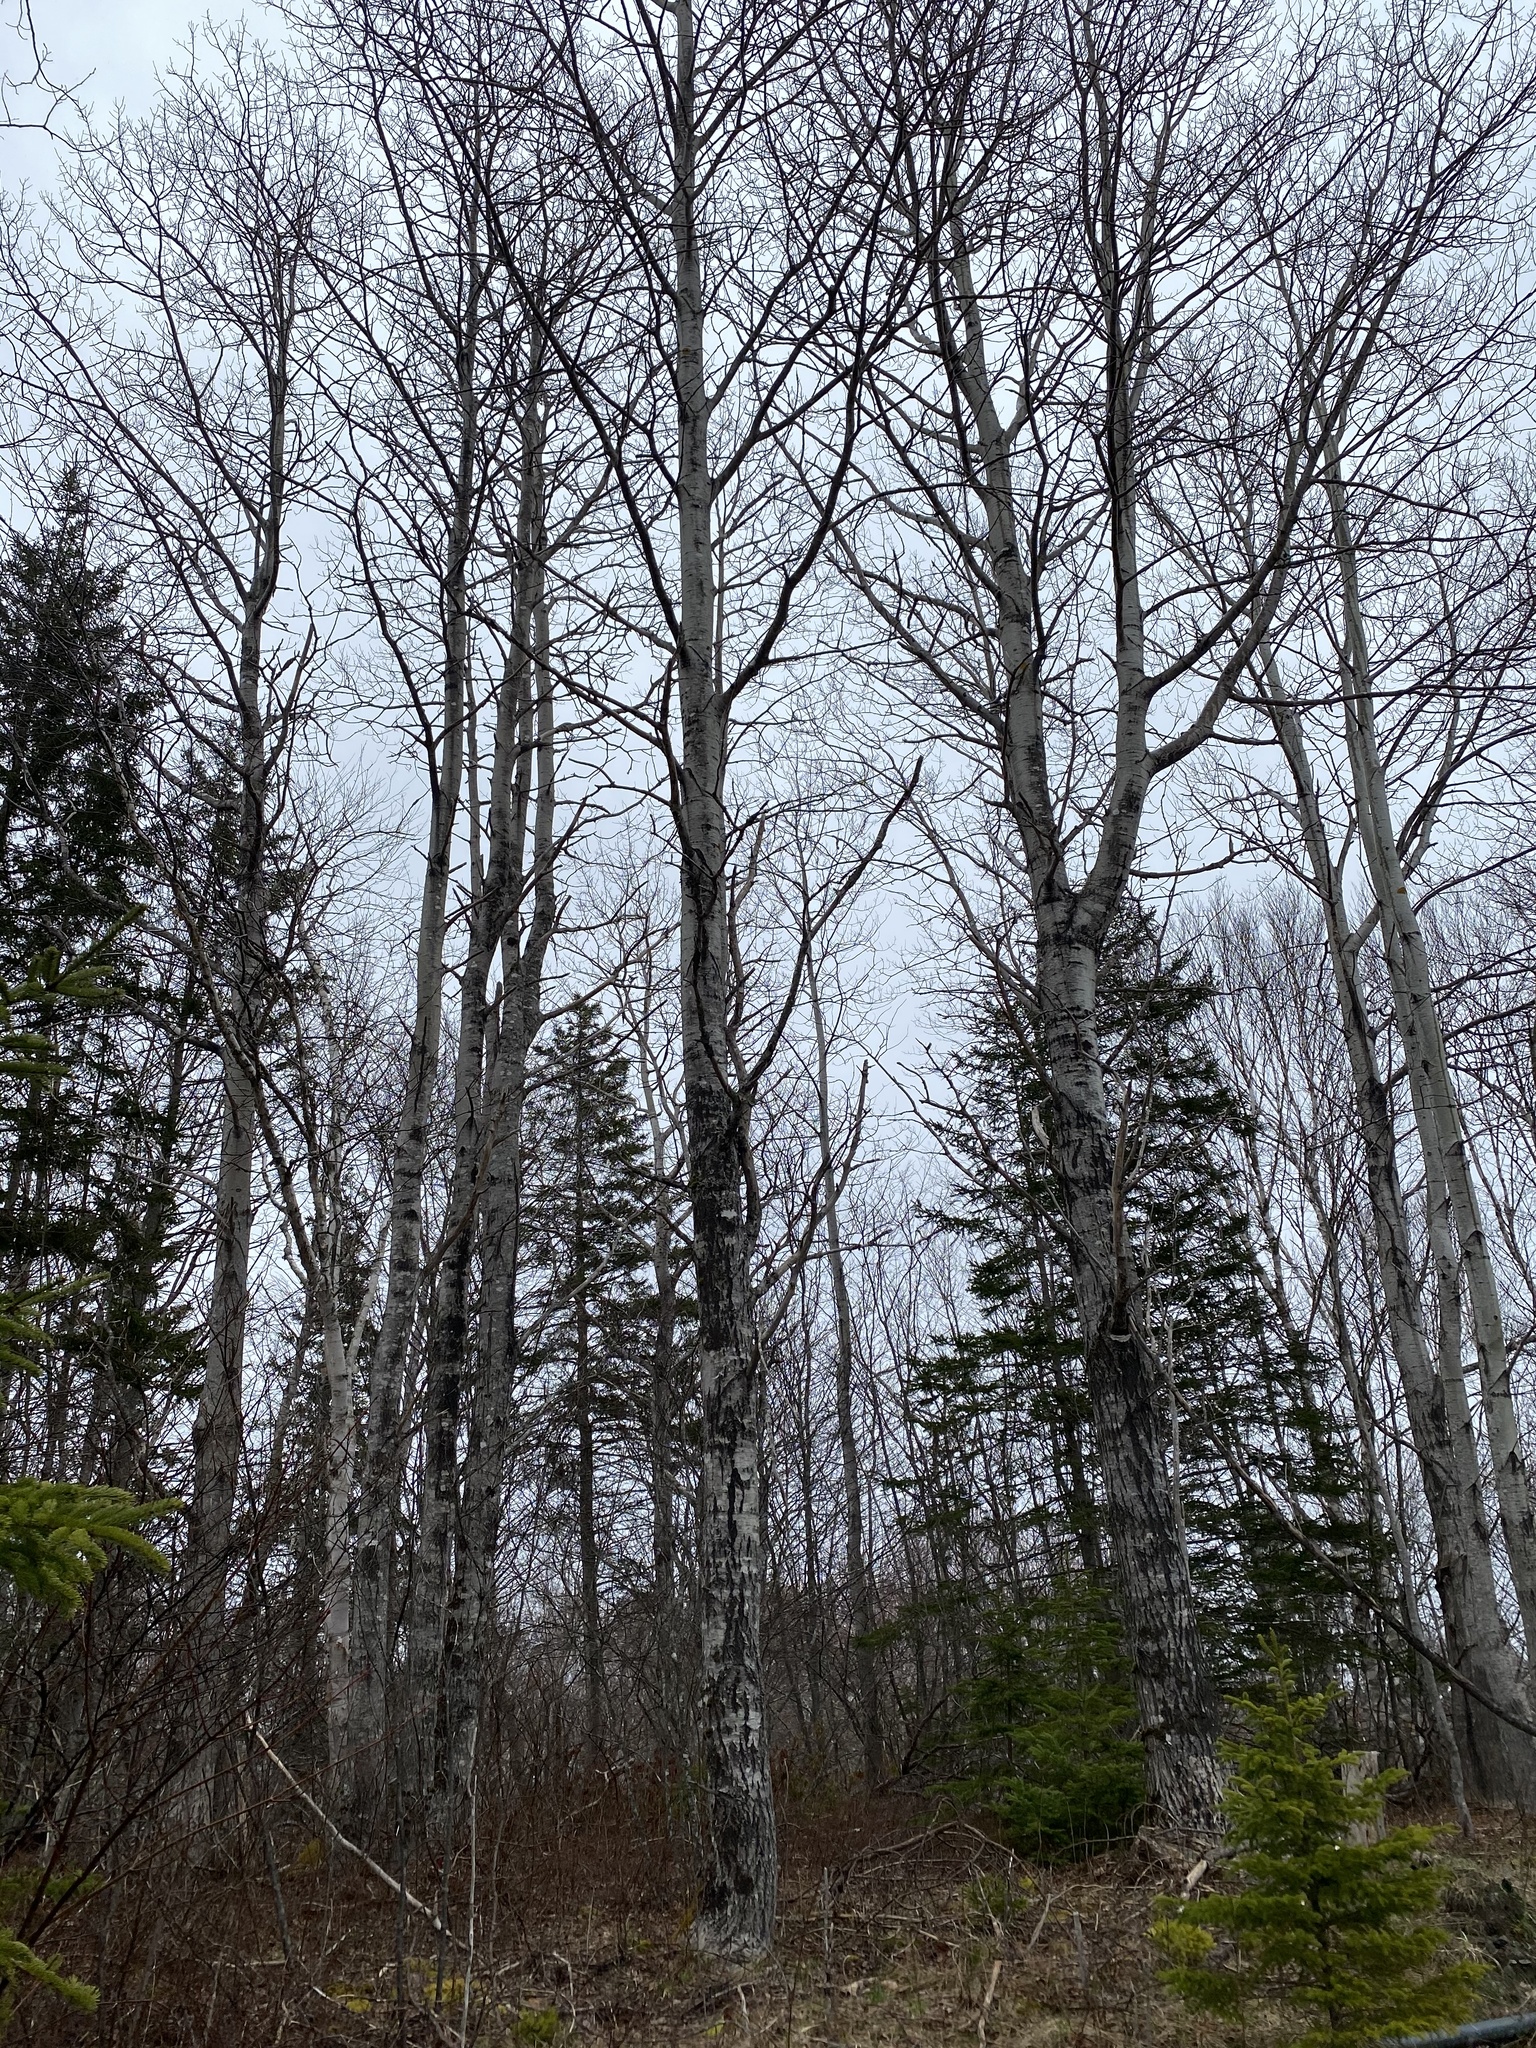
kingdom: Plantae
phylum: Tracheophyta
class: Magnoliopsida
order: Malpighiales
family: Salicaceae
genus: Populus
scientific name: Populus tremuloides
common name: Quaking aspen
